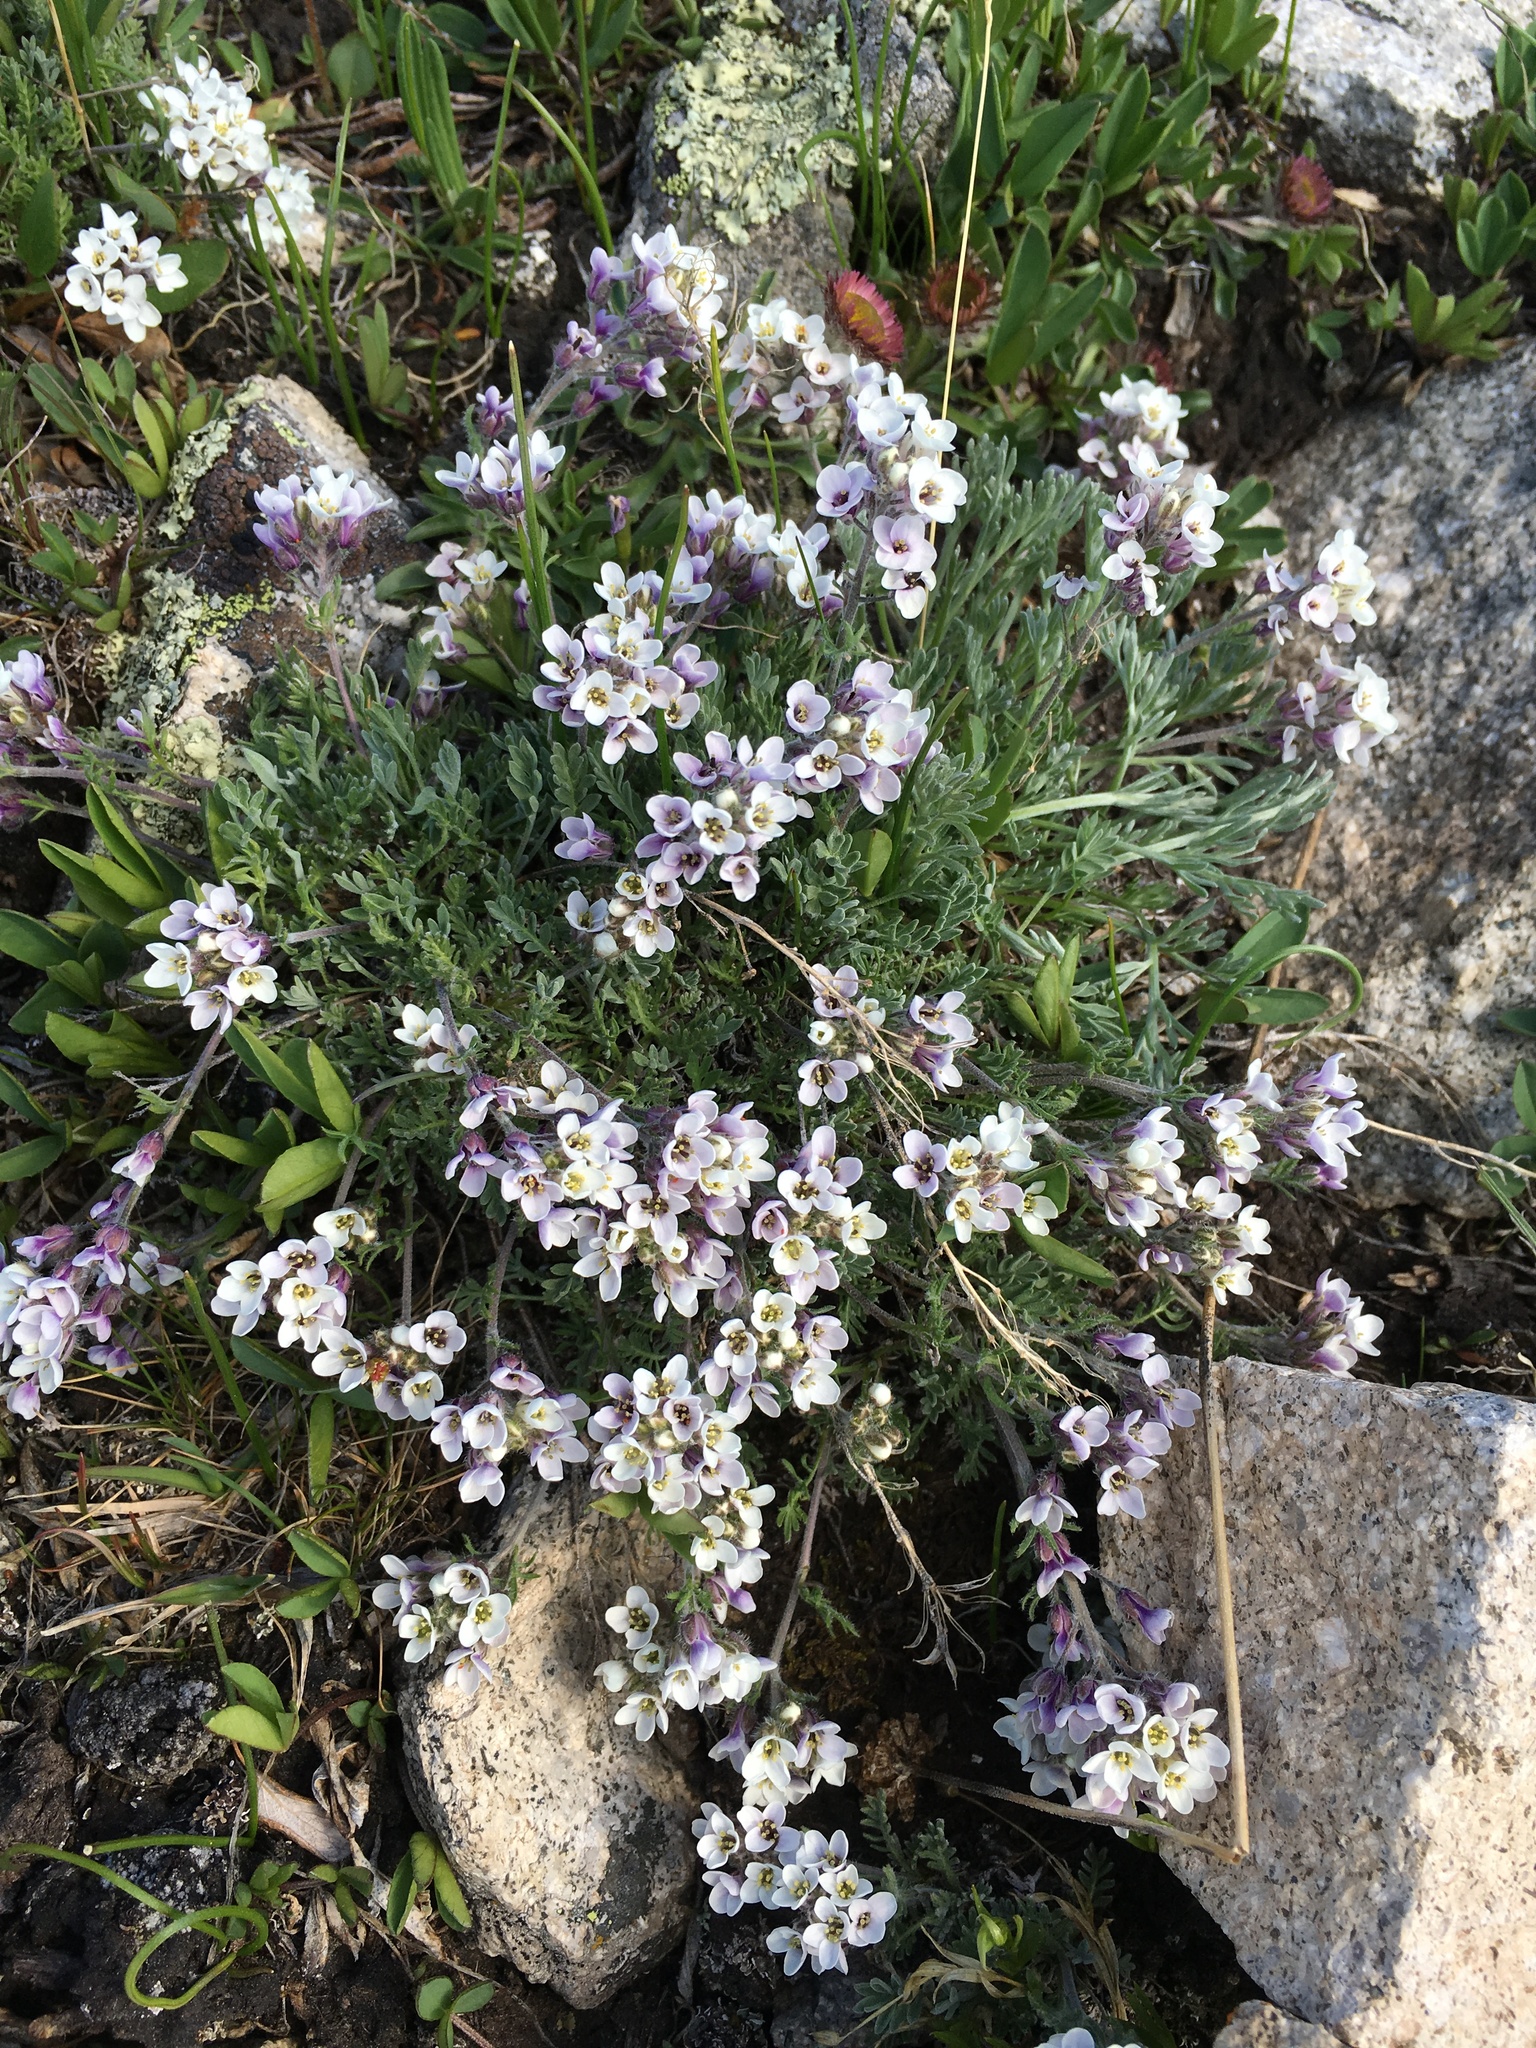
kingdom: Plantae
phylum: Tracheophyta
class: Magnoliopsida
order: Brassicales
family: Brassicaceae
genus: Smelowskia
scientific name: Smelowskia americana
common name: American false candytuft
